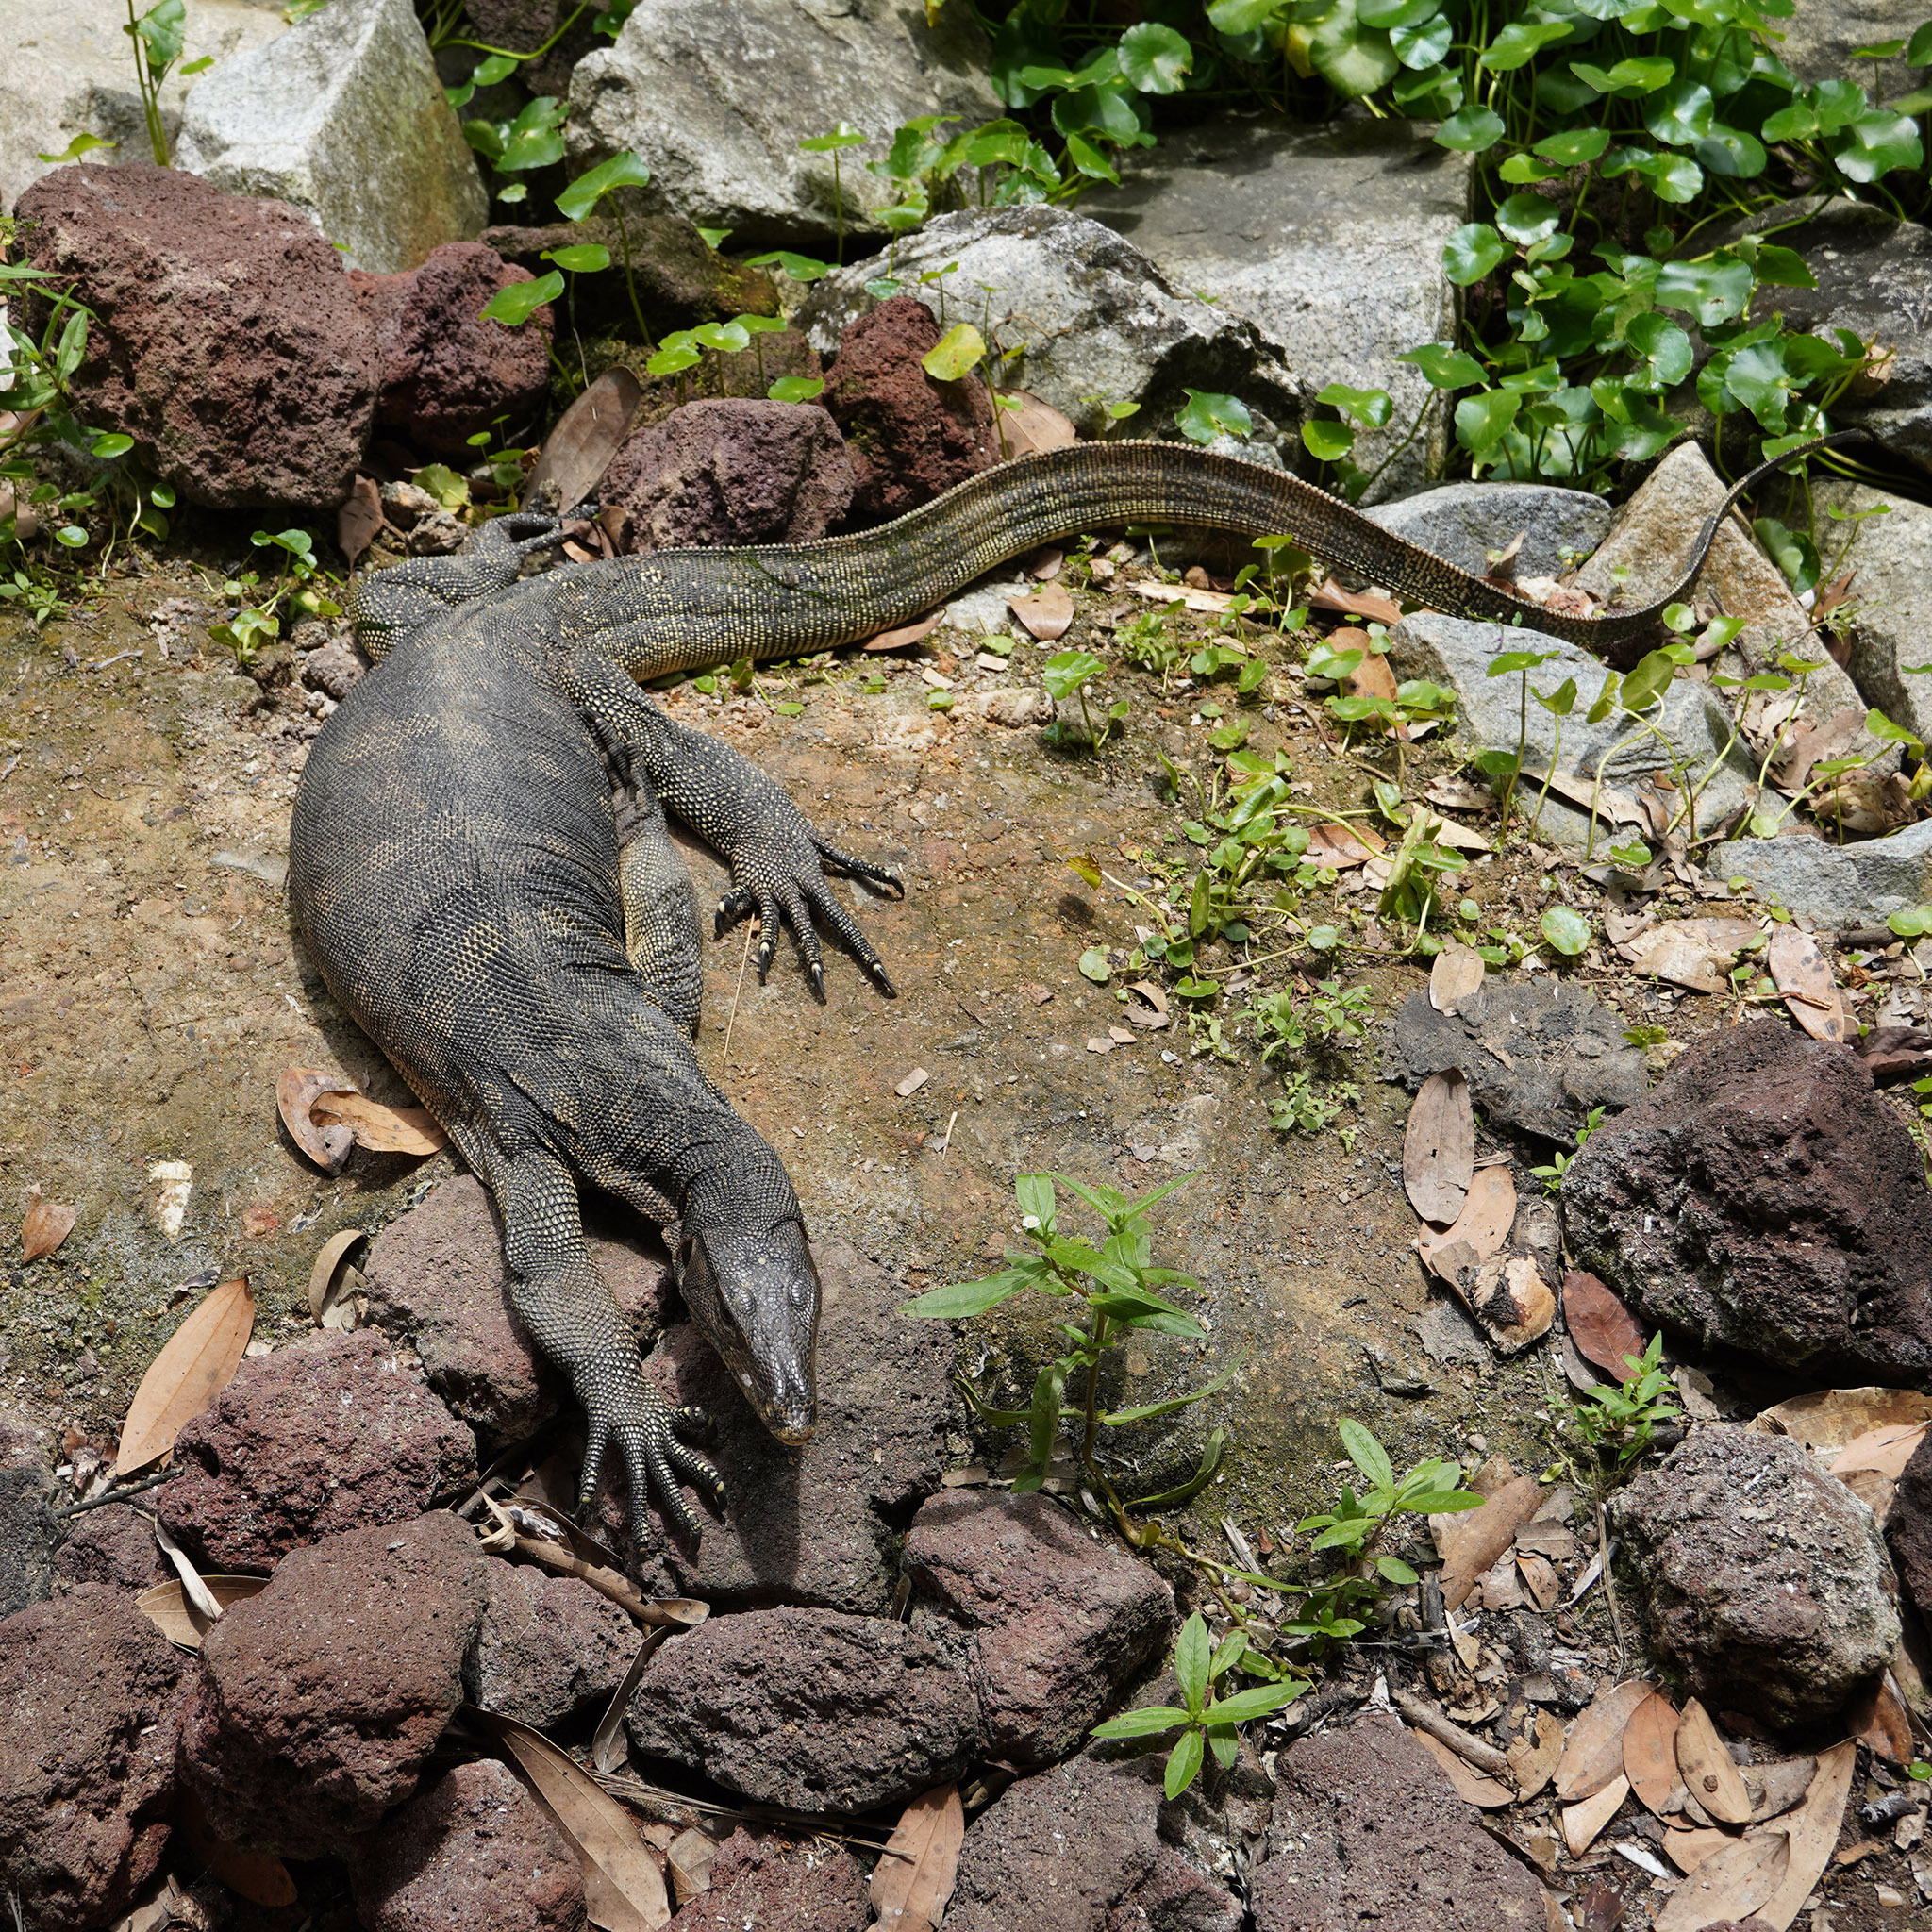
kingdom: Animalia
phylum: Chordata
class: Squamata
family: Varanidae
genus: Varanus
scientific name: Varanus salvator
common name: Common water monitor
